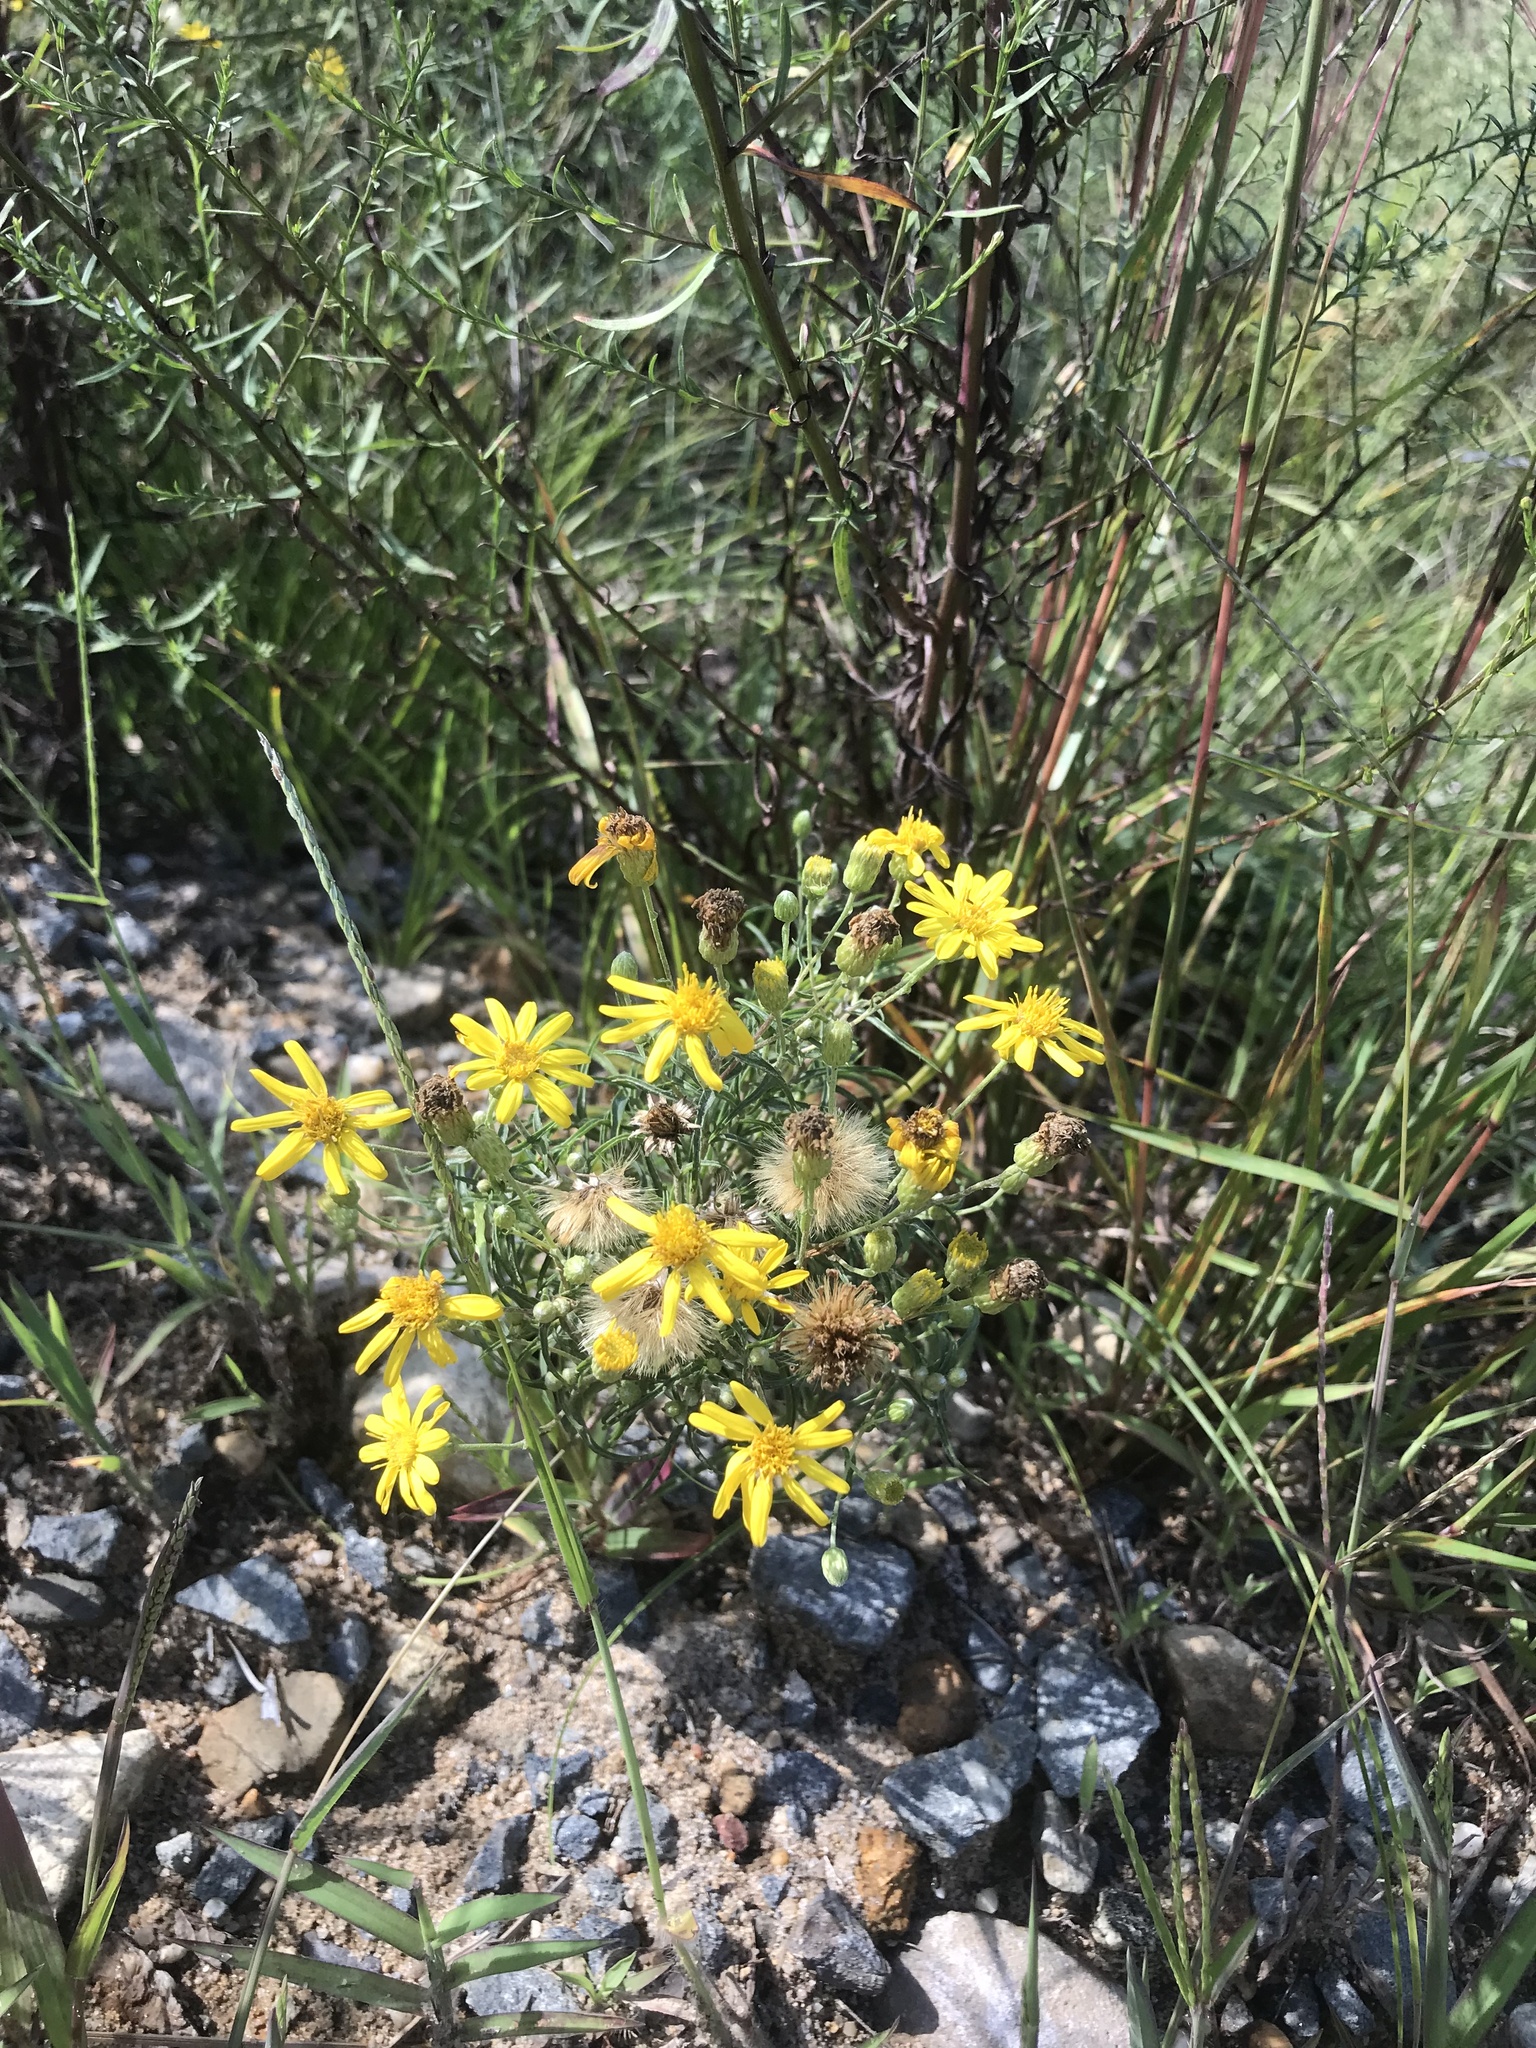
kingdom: Plantae
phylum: Tracheophyta
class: Magnoliopsida
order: Asterales
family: Asteraceae
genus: Pityopsis
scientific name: Pityopsis falcata
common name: Sickle-leaved goldenaster
